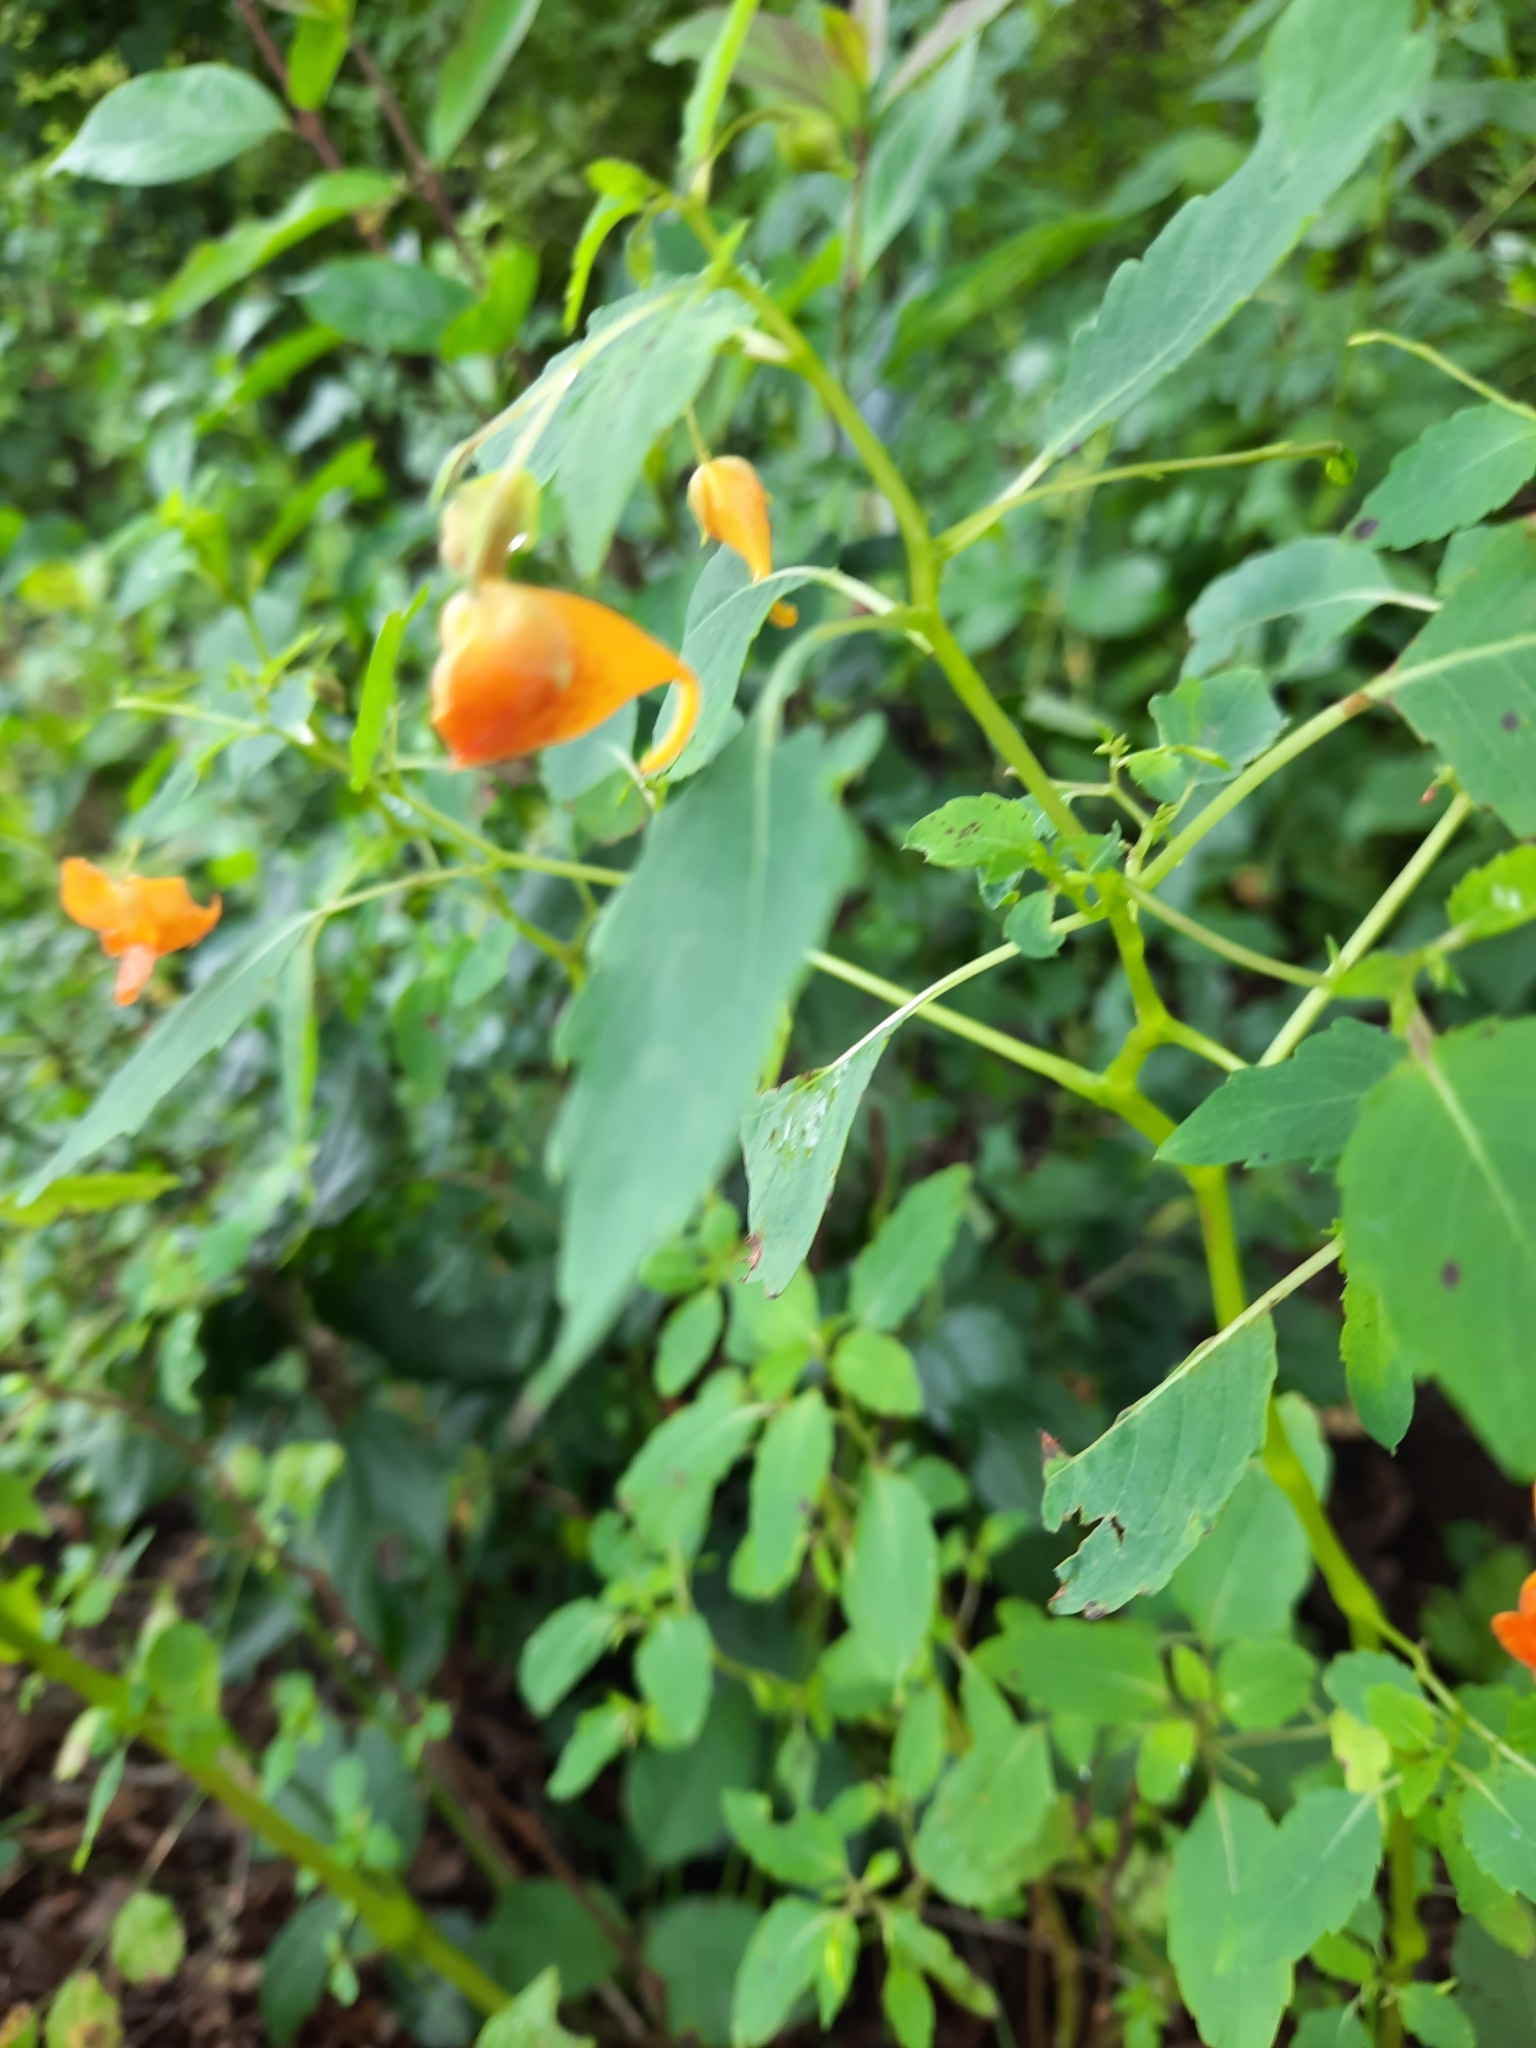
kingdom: Plantae
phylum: Tracheophyta
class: Magnoliopsida
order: Ericales
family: Balsaminaceae
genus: Impatiens
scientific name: Impatiens capensis
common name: Orange balsam
